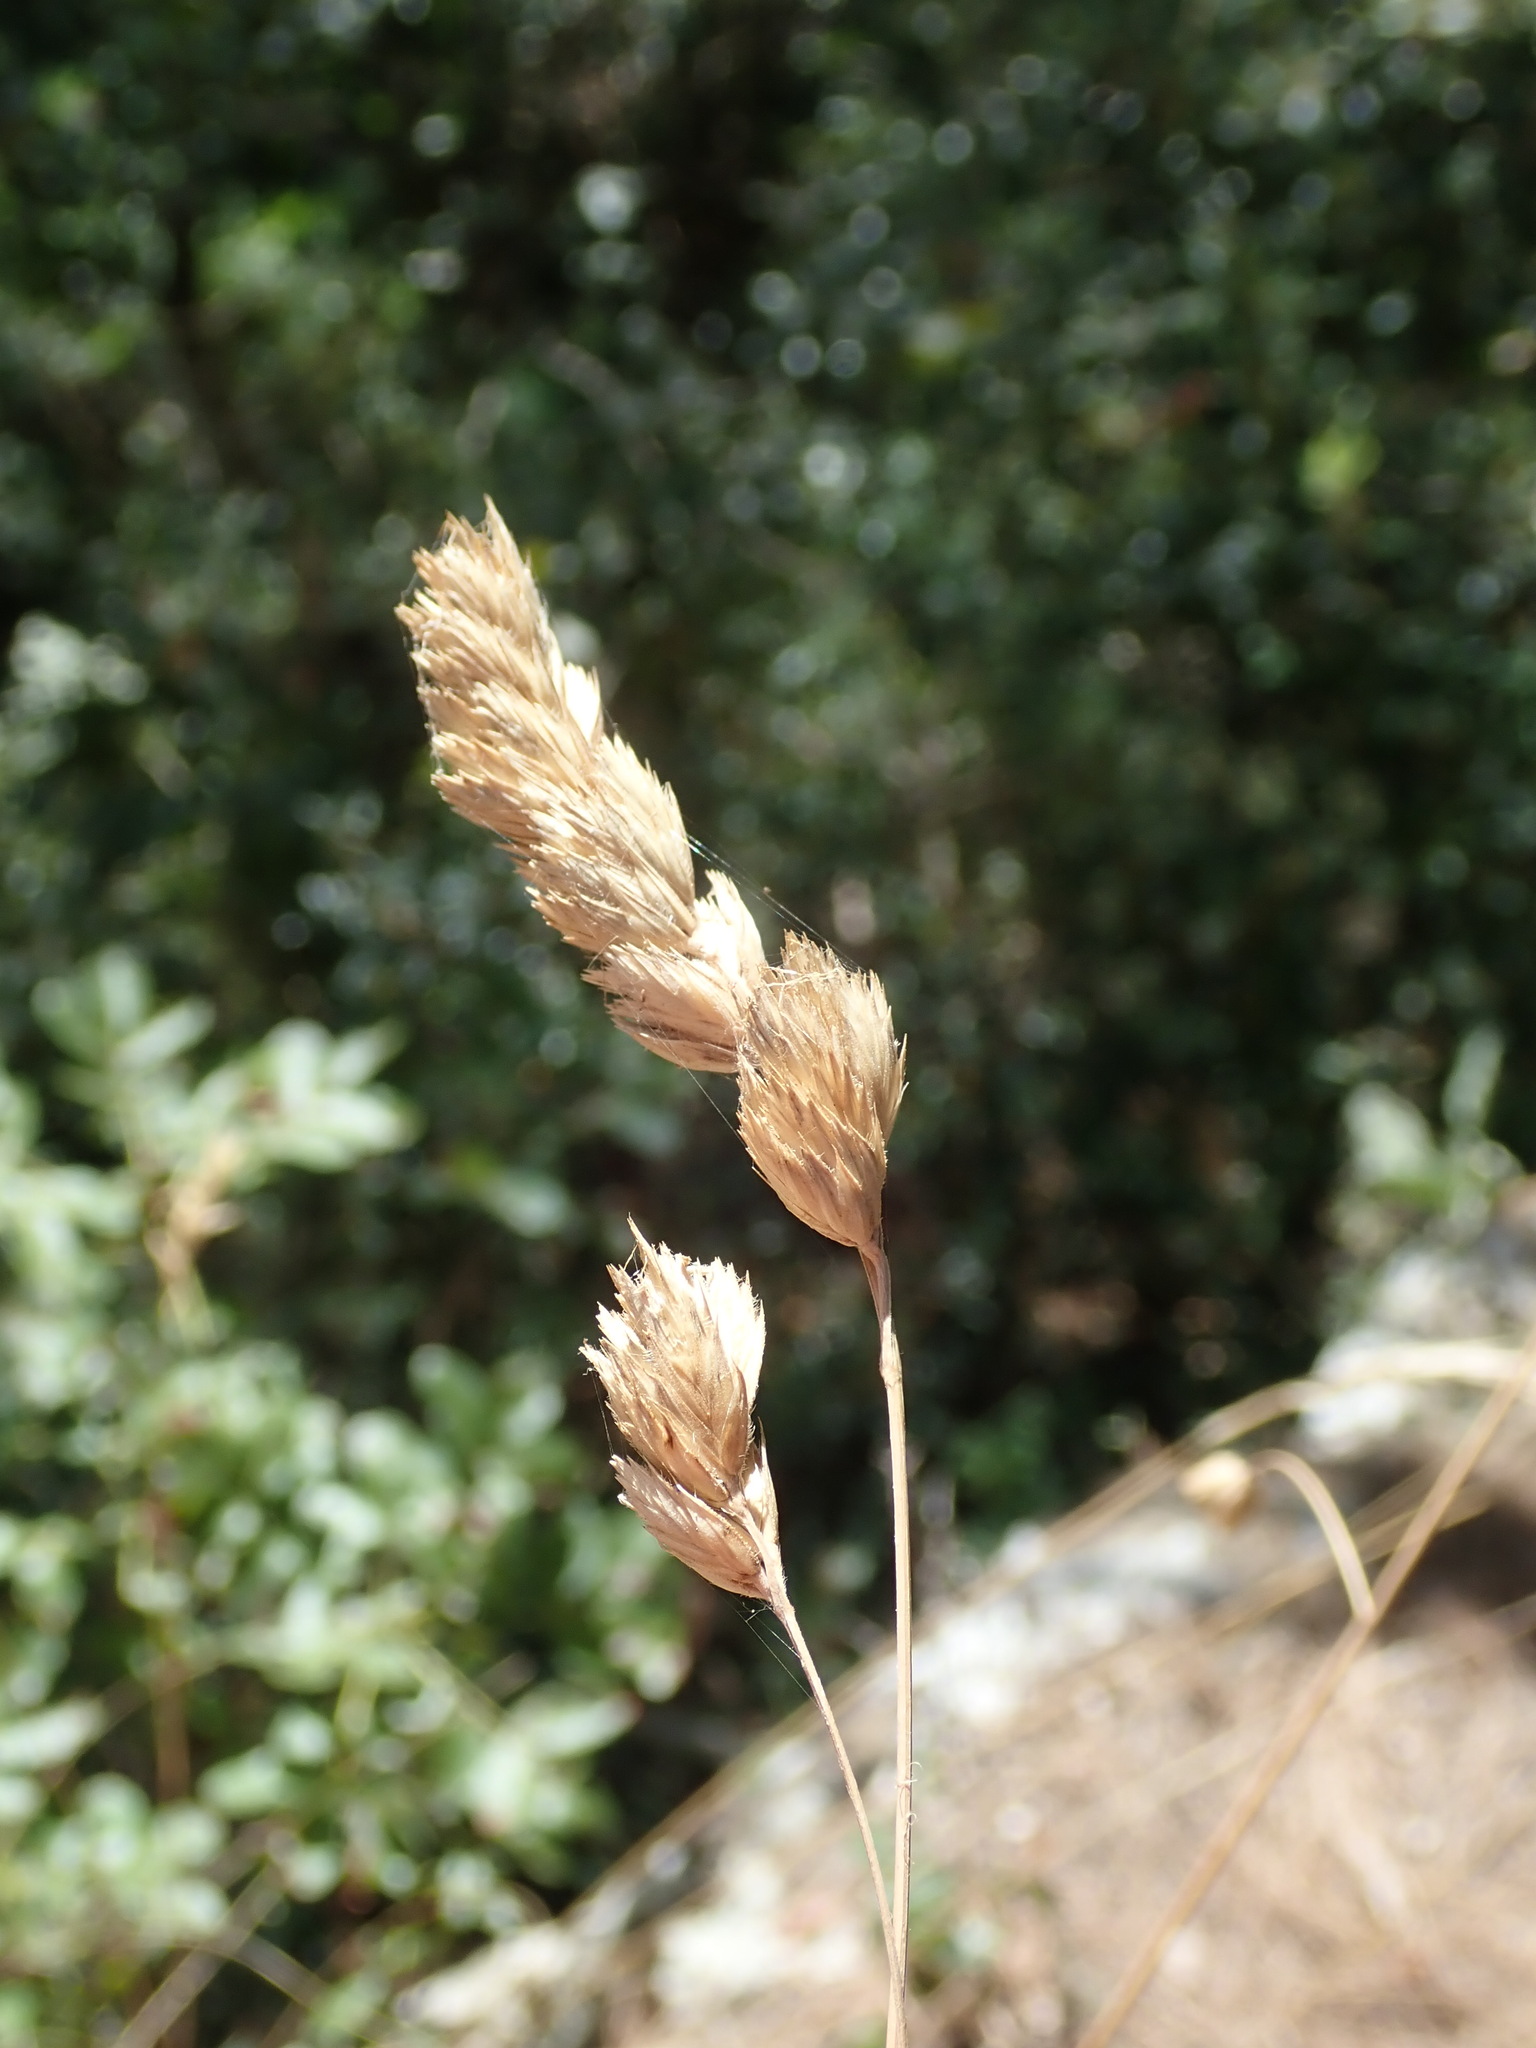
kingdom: Plantae
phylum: Tracheophyta
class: Liliopsida
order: Poales
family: Poaceae
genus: Dactylis
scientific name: Dactylis glomerata
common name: Orchardgrass
